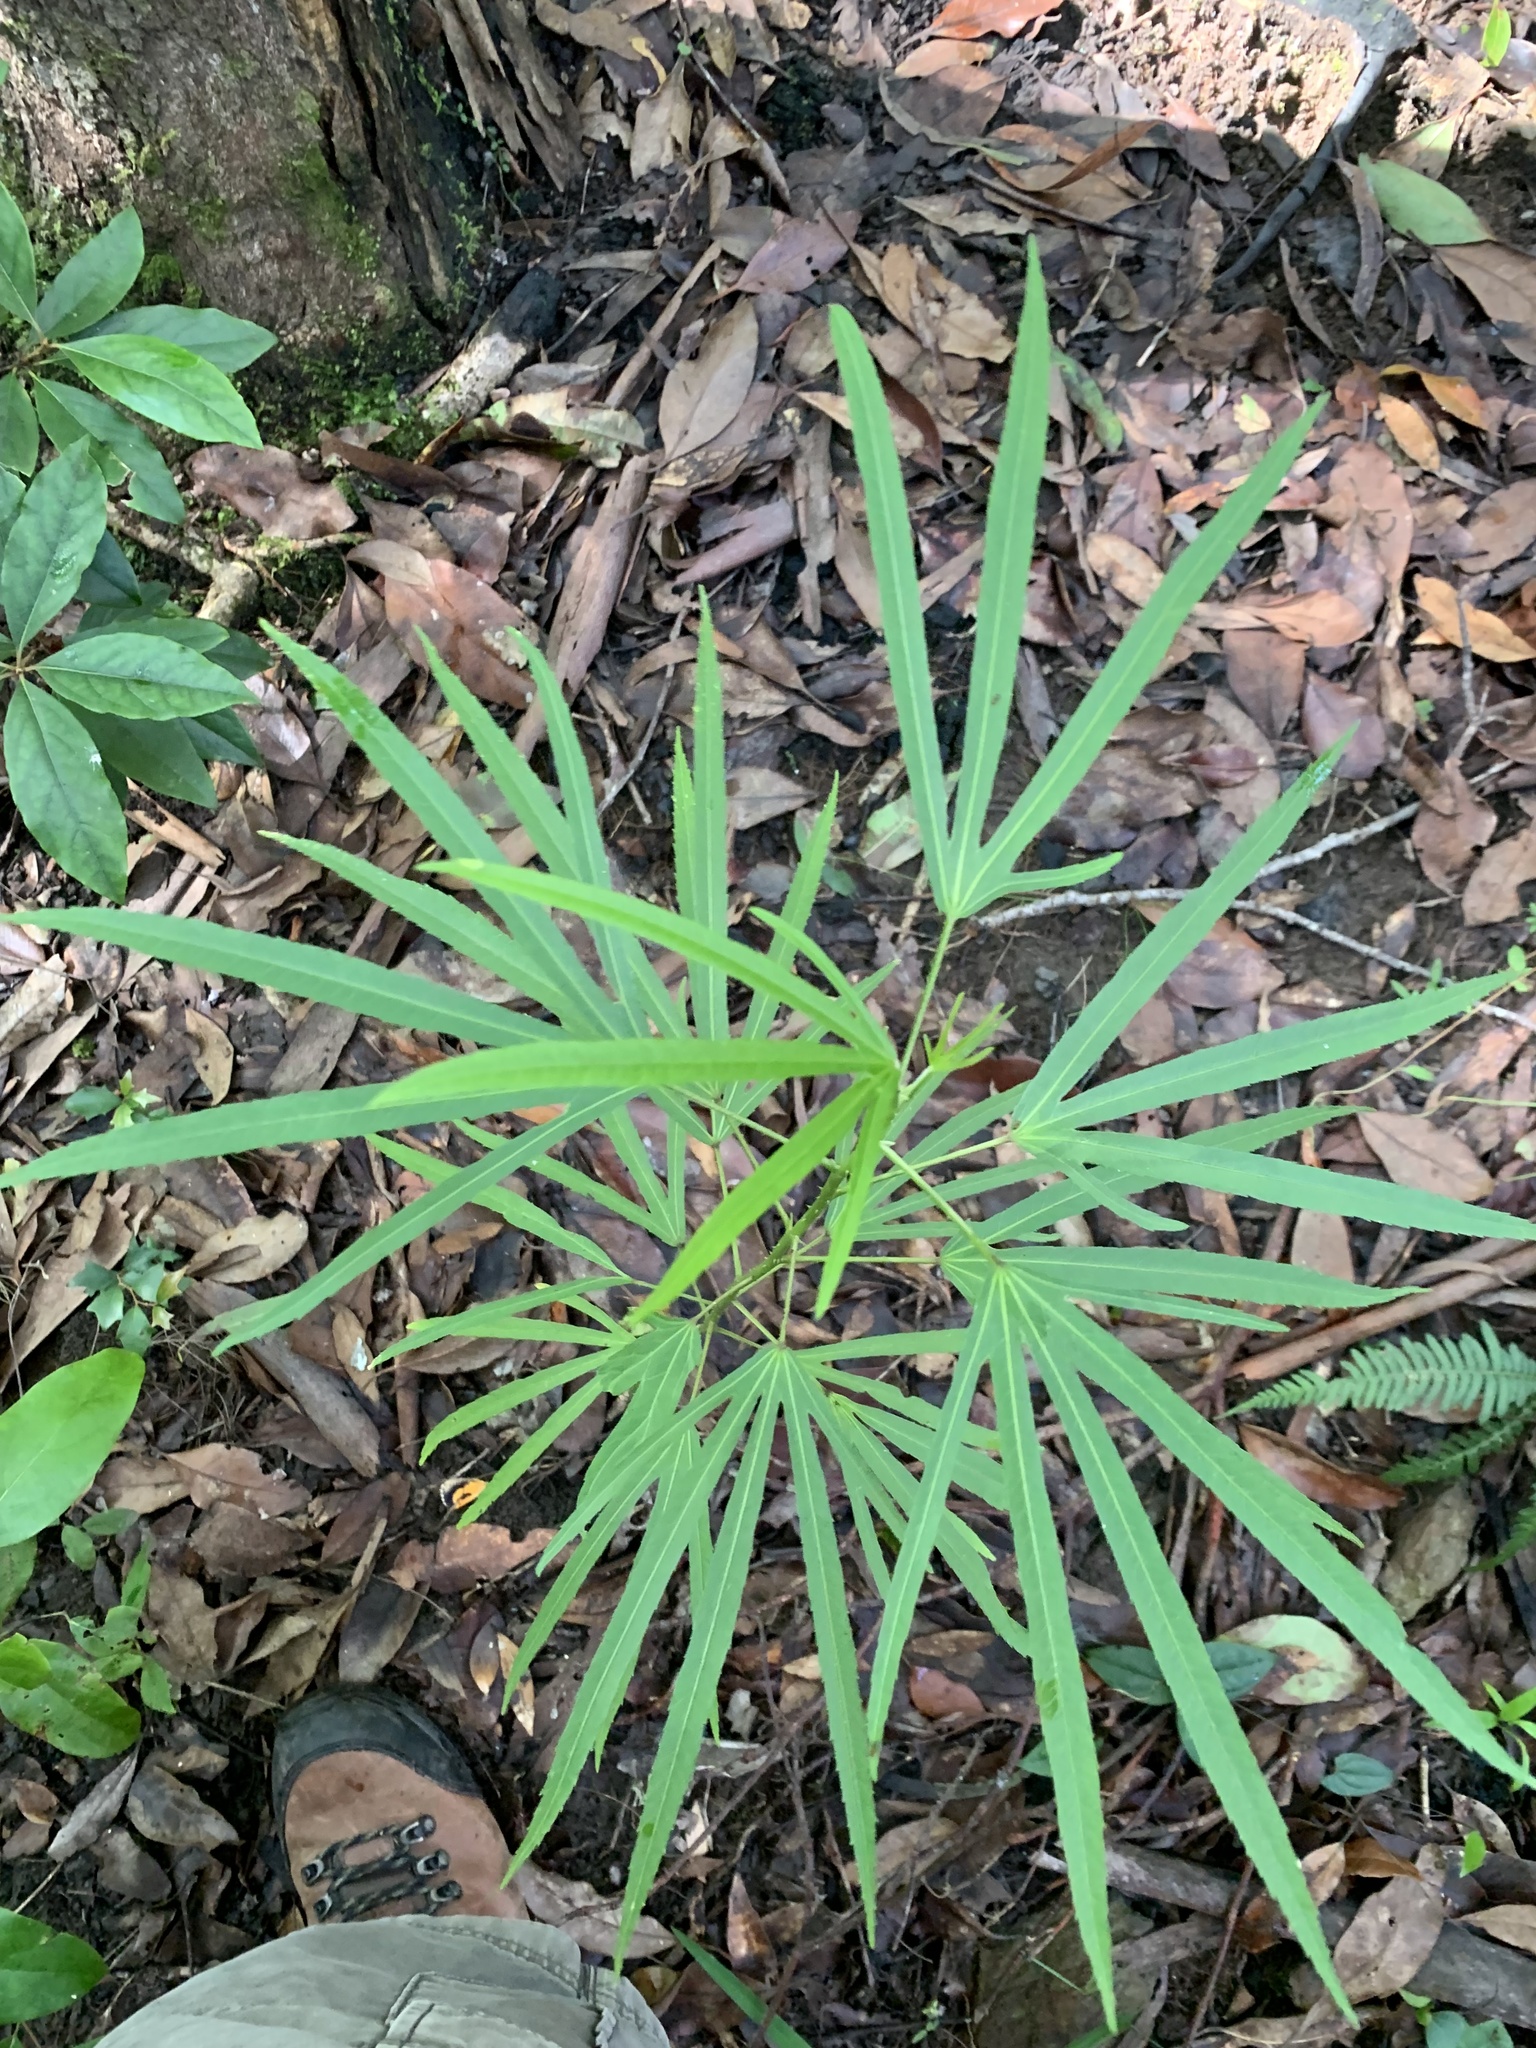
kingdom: Plantae
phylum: Tracheophyta
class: Magnoliopsida
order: Malvales
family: Malvaceae
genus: Hibiscus
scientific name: Hibiscus heterophyllus
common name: Queensland-sorrel
